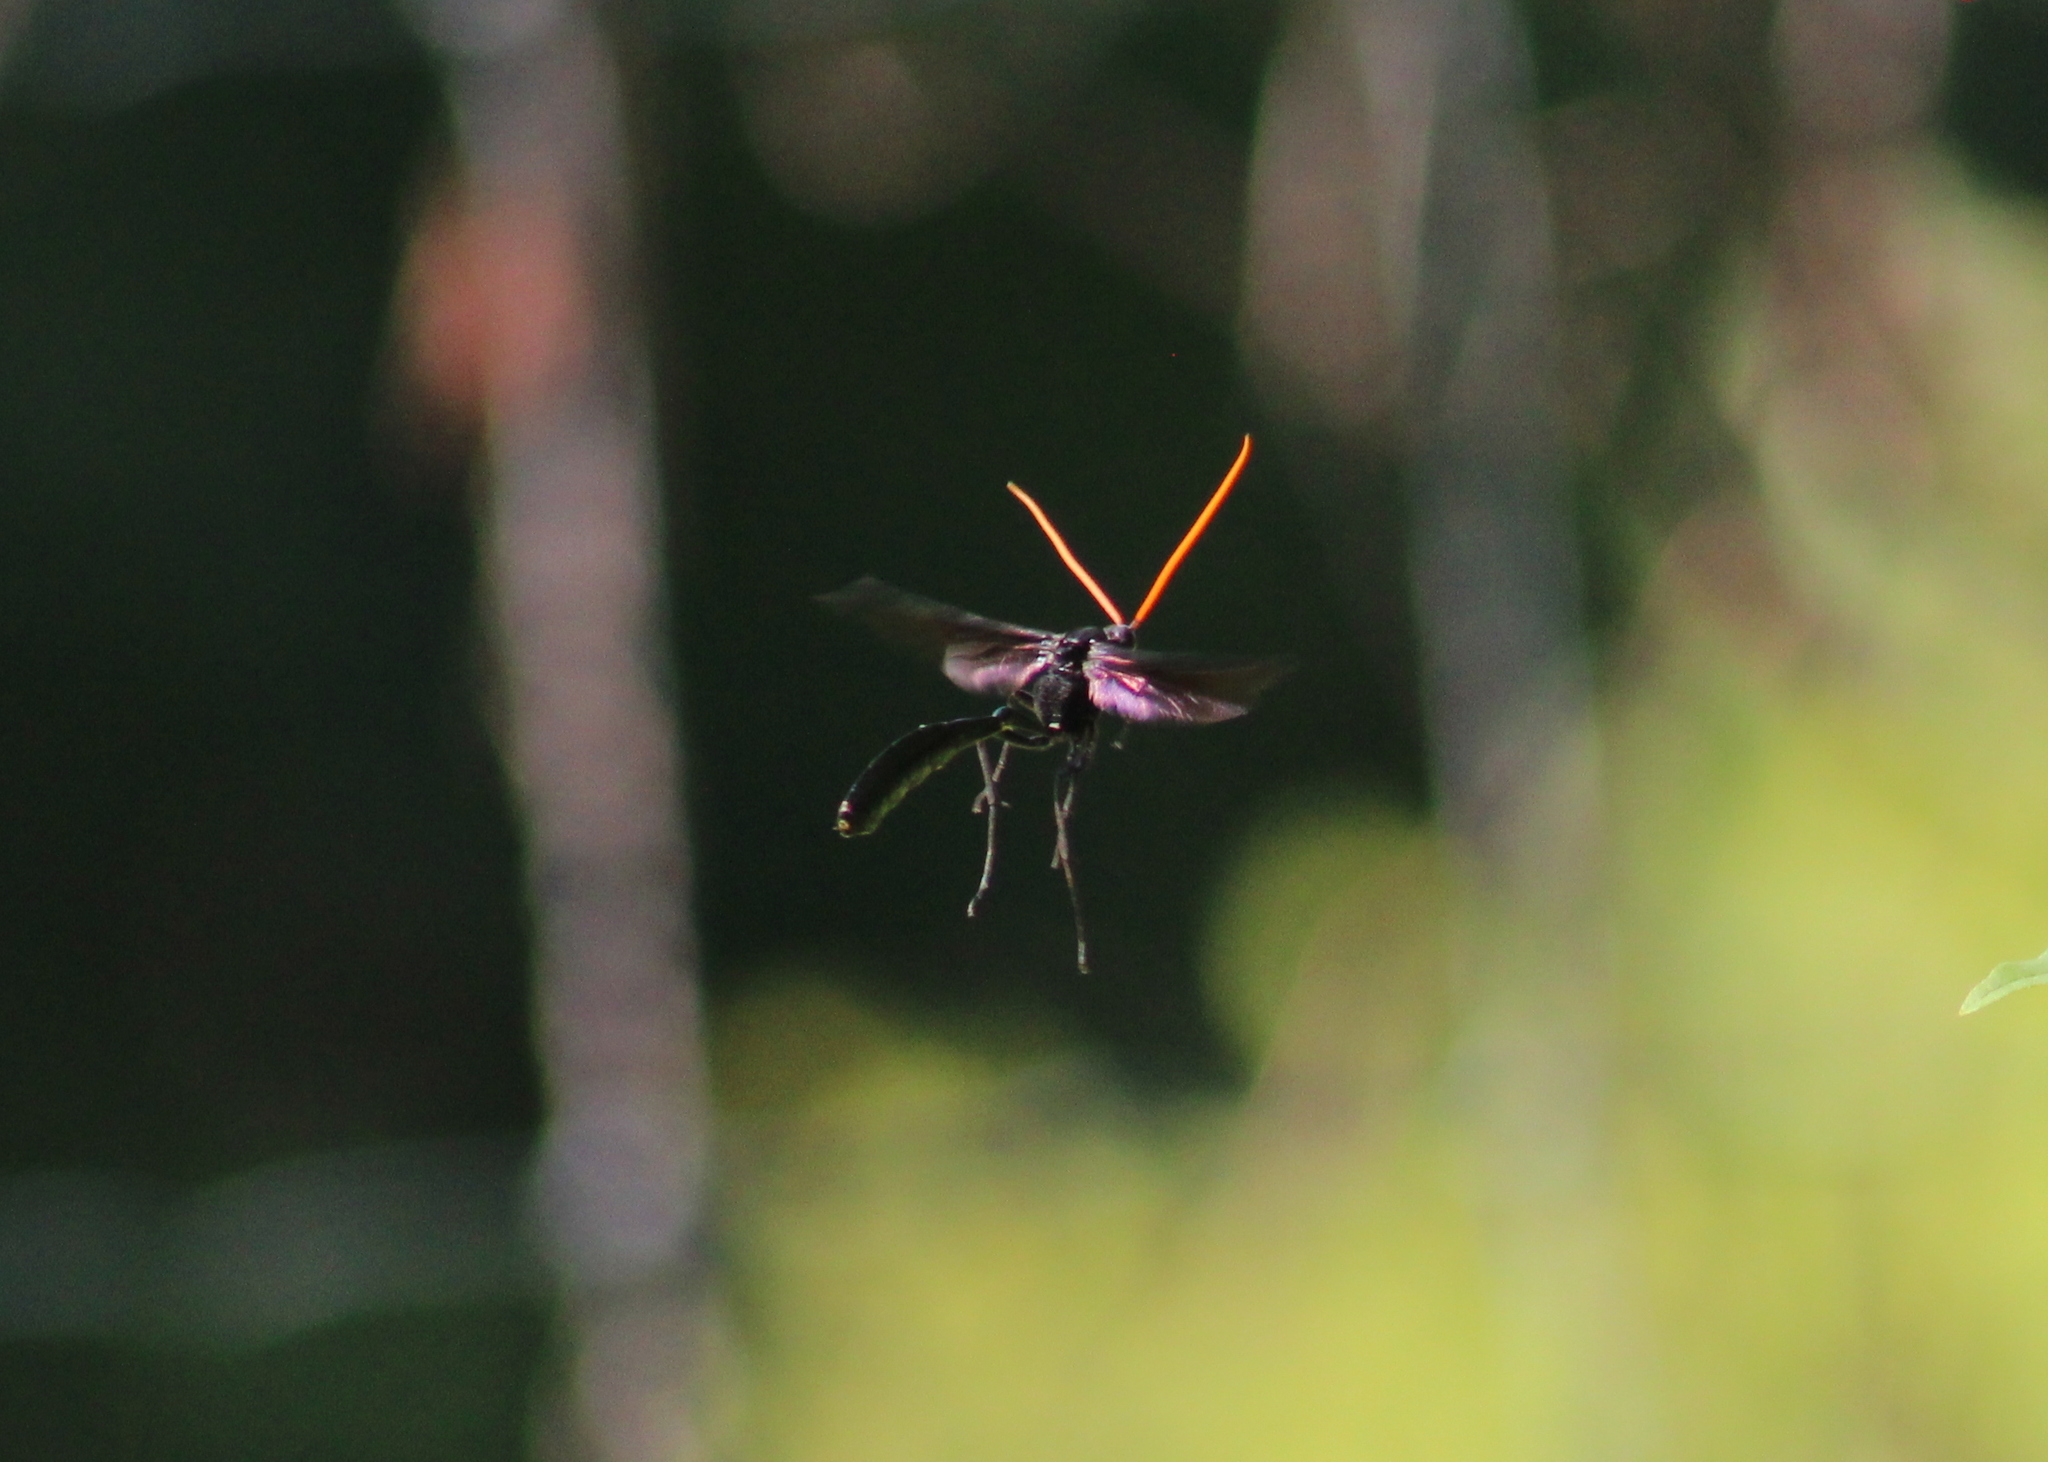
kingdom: Animalia
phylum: Arthropoda
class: Insecta
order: Hymenoptera
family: Ichneumonidae
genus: Thyreodon
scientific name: Thyreodon atricolor
